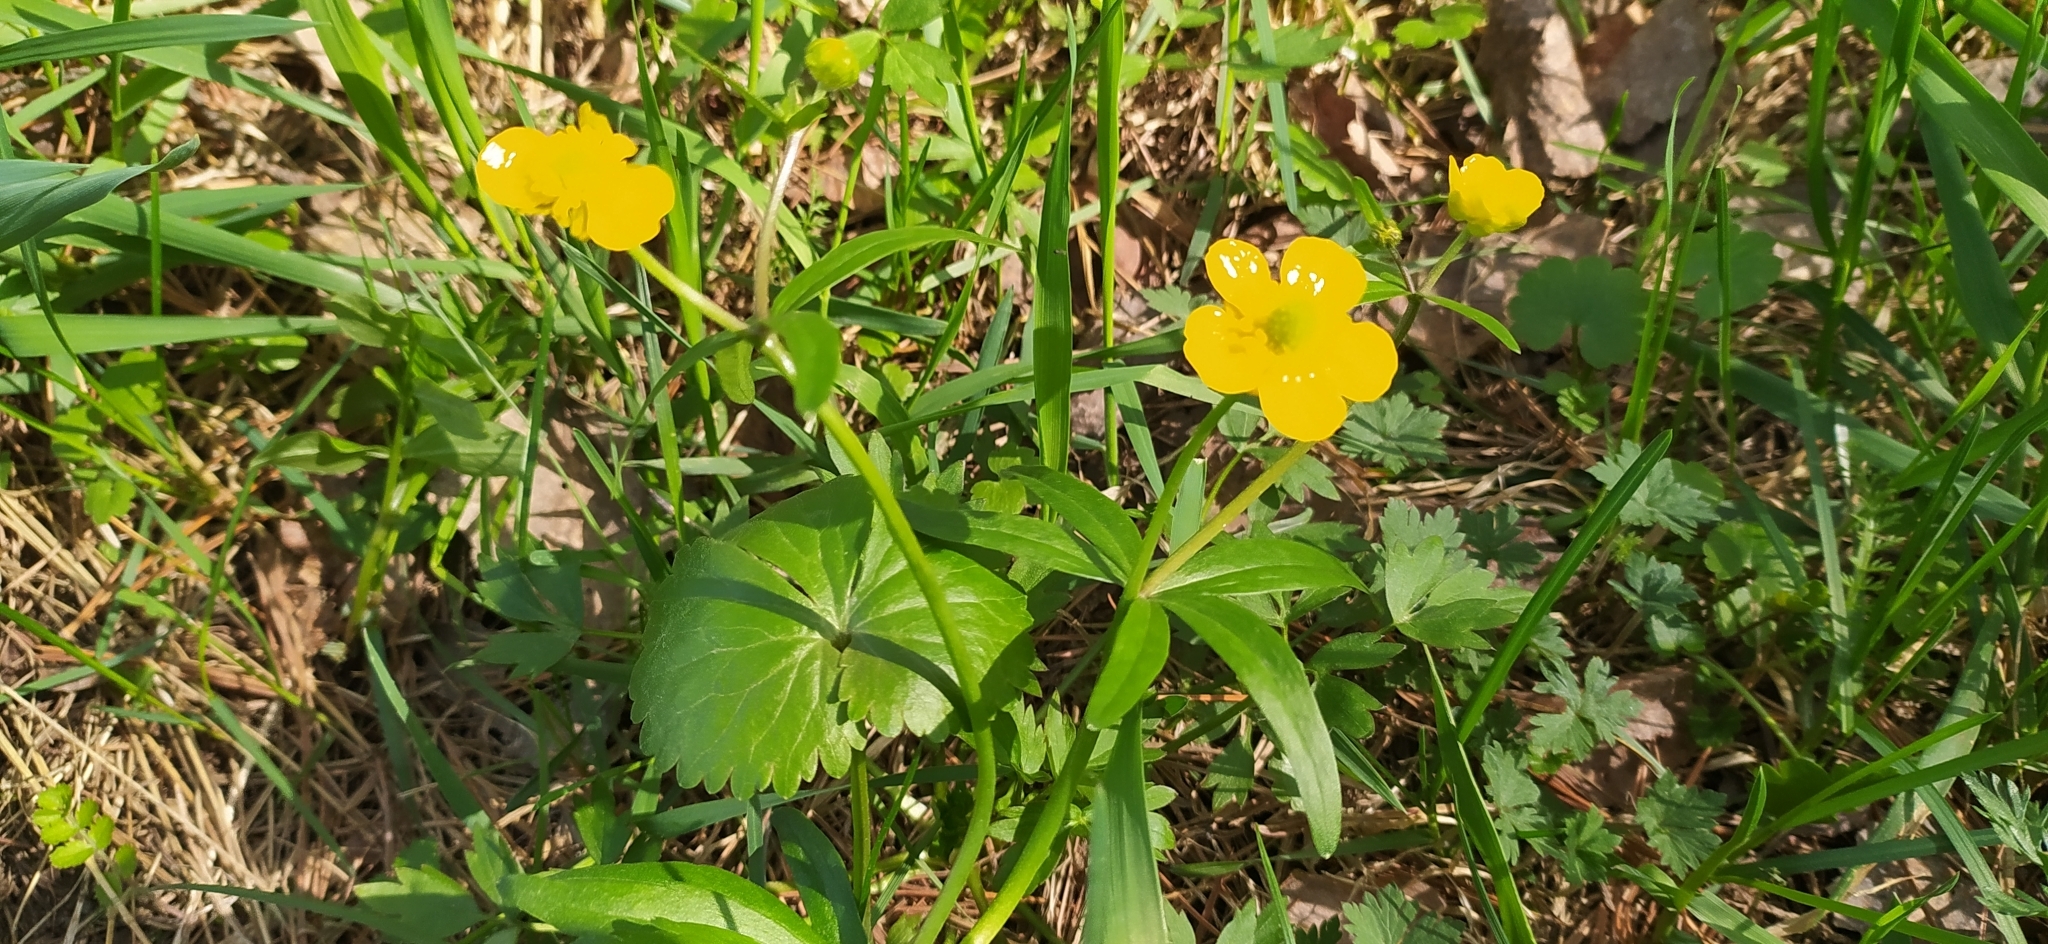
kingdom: Plantae
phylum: Tracheophyta
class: Magnoliopsida
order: Ranunculales
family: Ranunculaceae
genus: Ranunculus
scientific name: Ranunculus monophyllus
